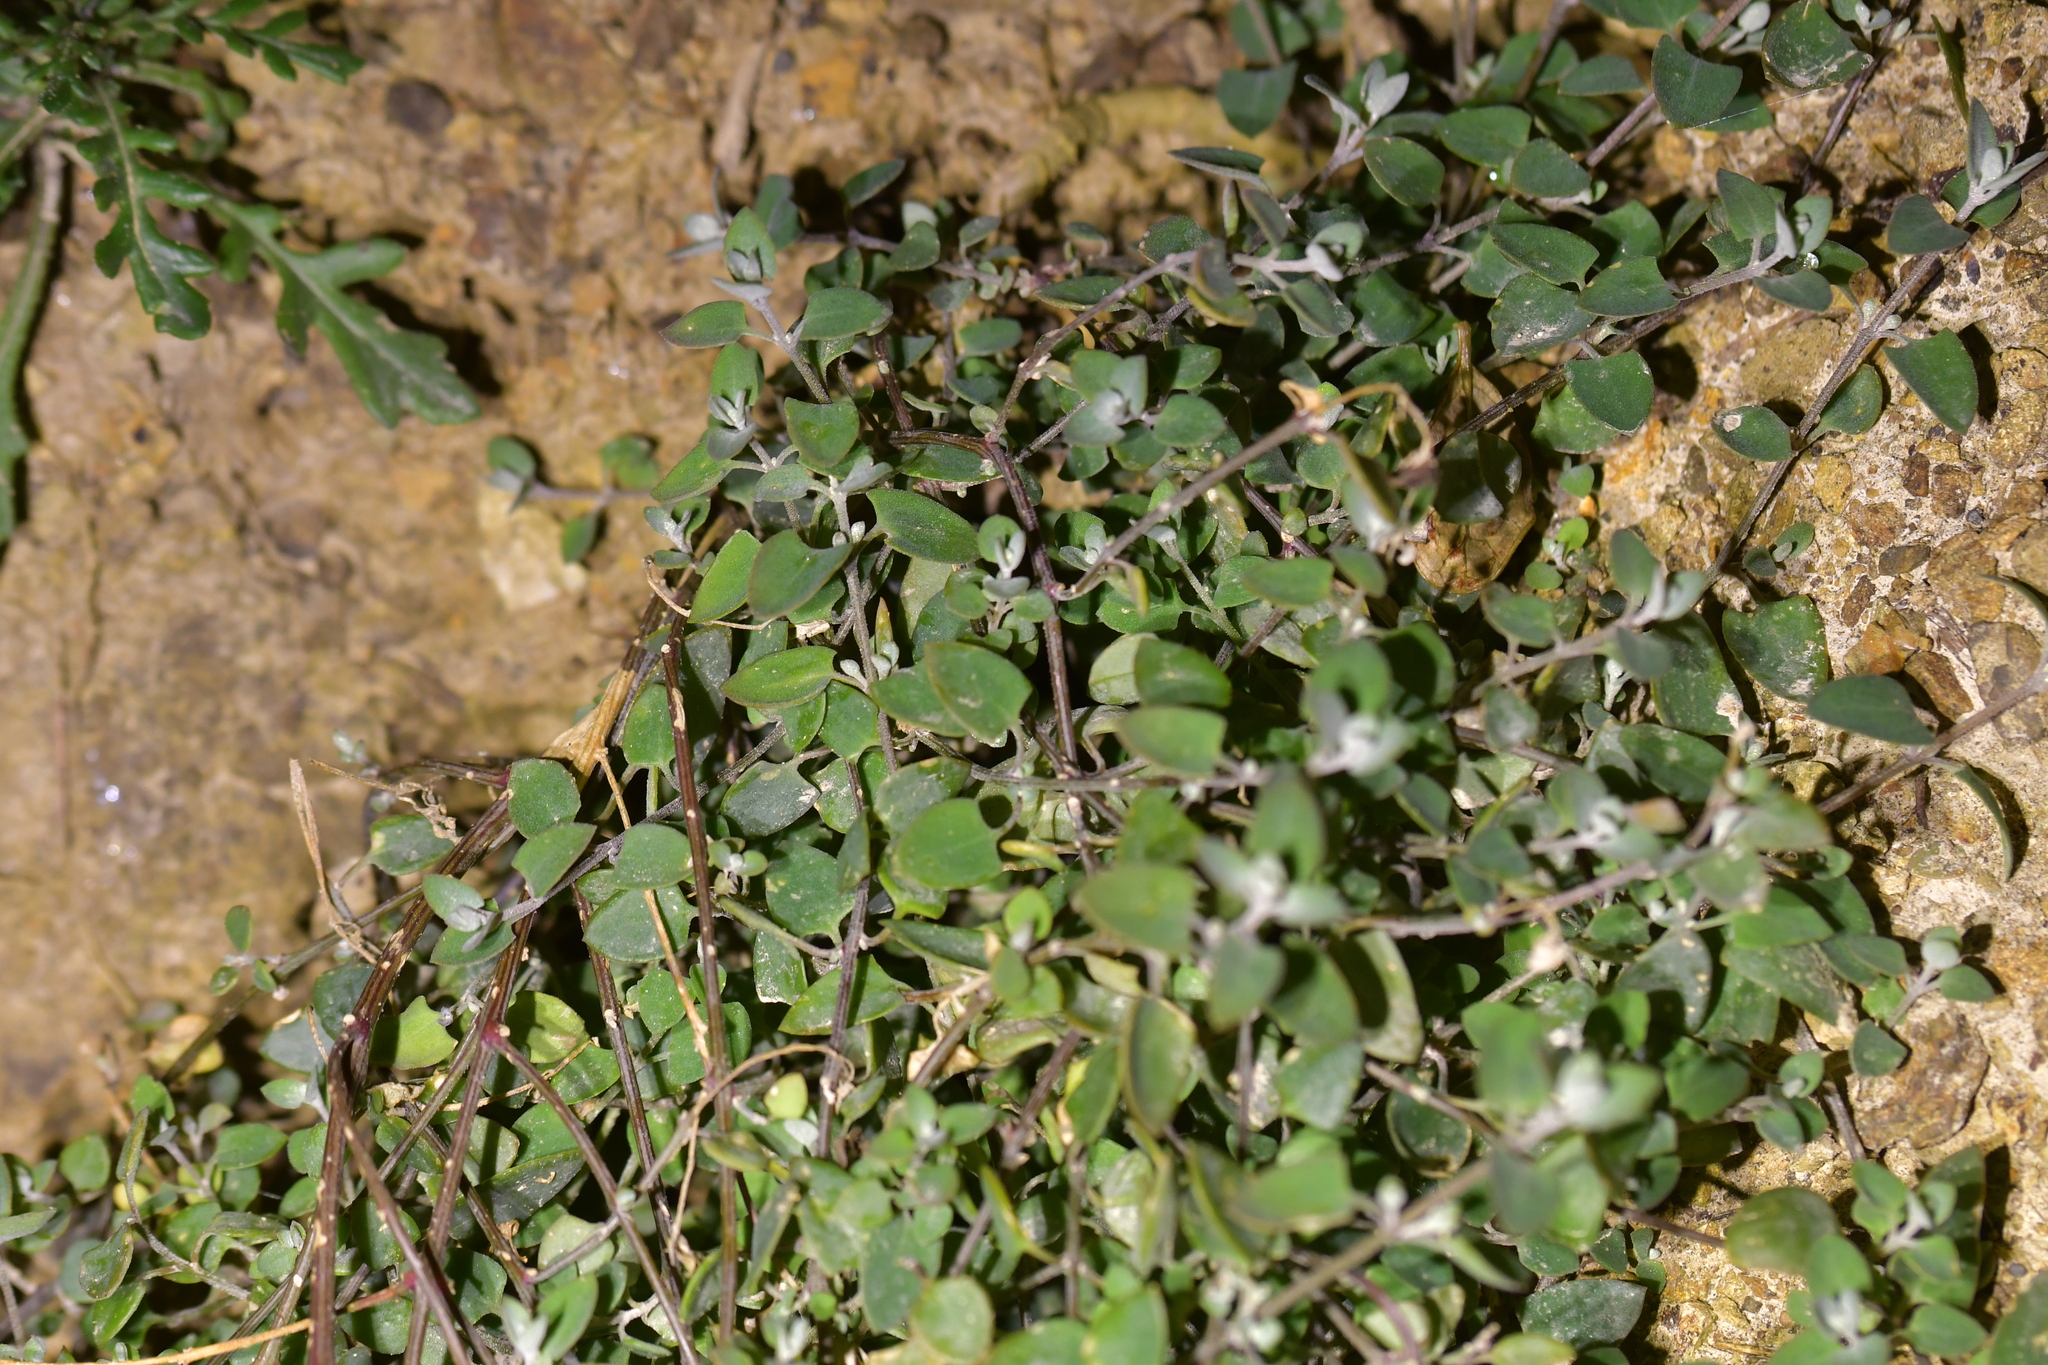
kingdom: Plantae
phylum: Tracheophyta
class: Magnoliopsida
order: Caryophyllales
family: Amaranthaceae
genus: Chenopodium
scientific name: Chenopodium triandrum
